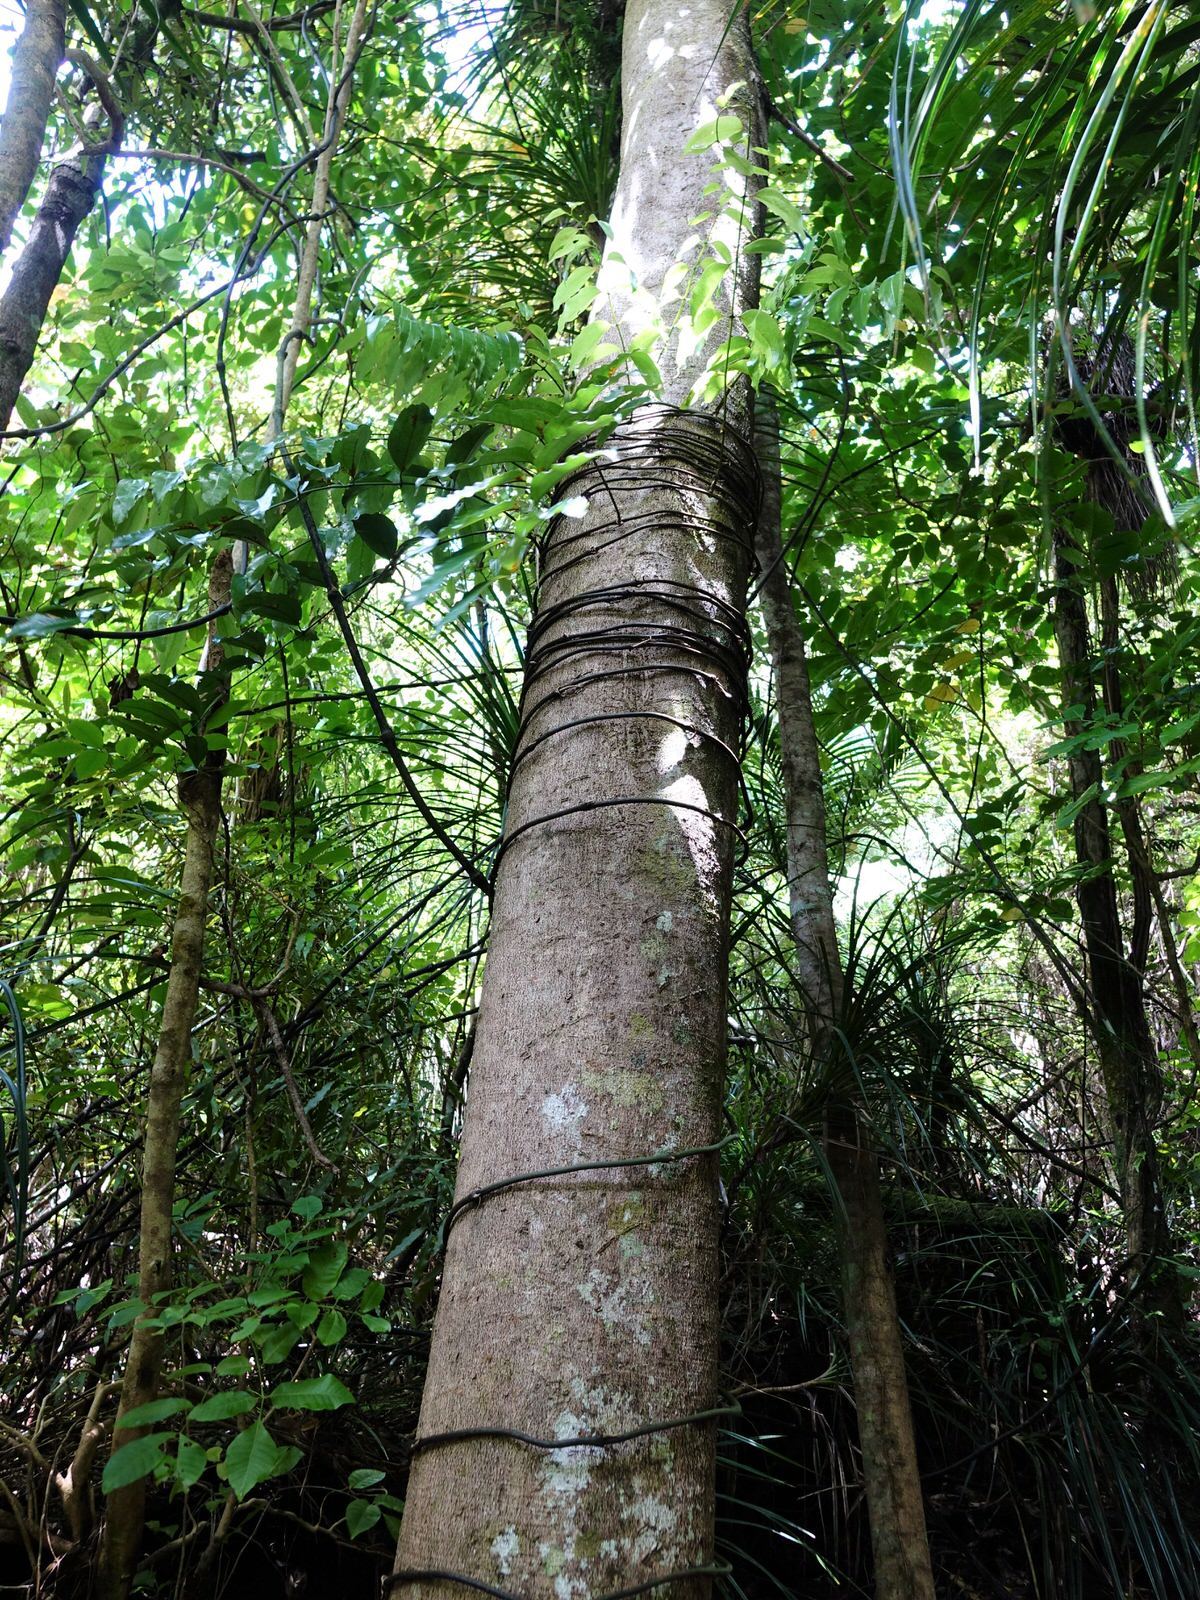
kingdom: Plantae
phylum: Tracheophyta
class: Liliopsida
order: Liliales
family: Ripogonaceae
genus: Ripogonum
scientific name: Ripogonum scandens
